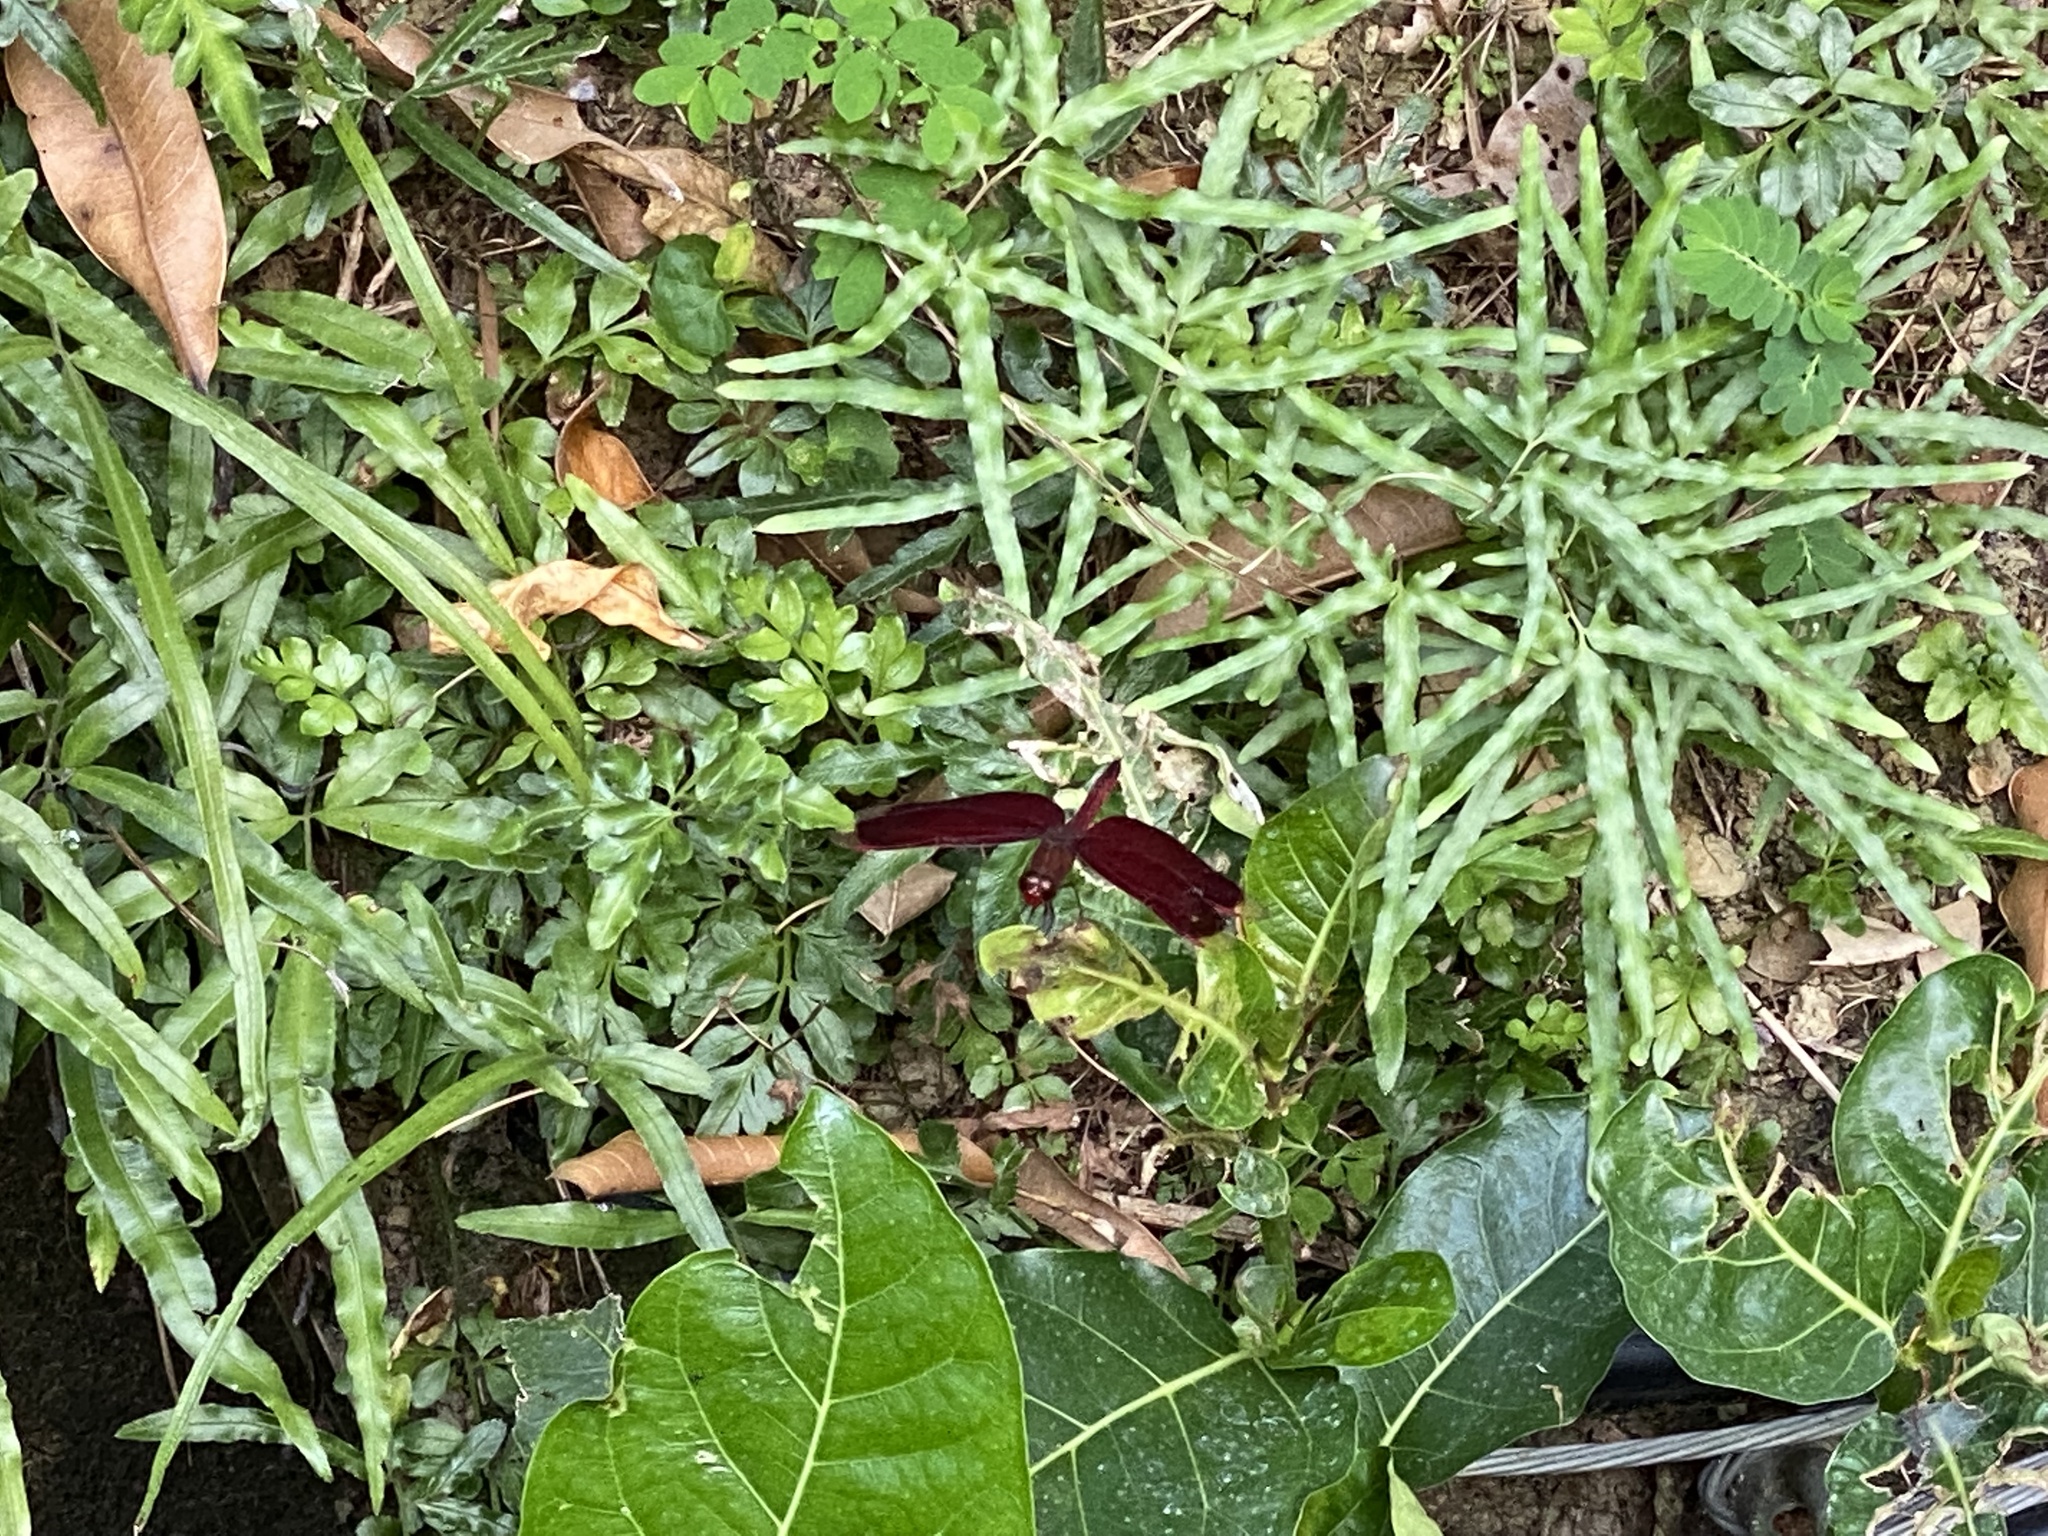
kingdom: Animalia
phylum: Arthropoda
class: Insecta
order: Odonata
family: Libellulidae
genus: Neurothemis
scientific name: Neurothemis taiwanensis
